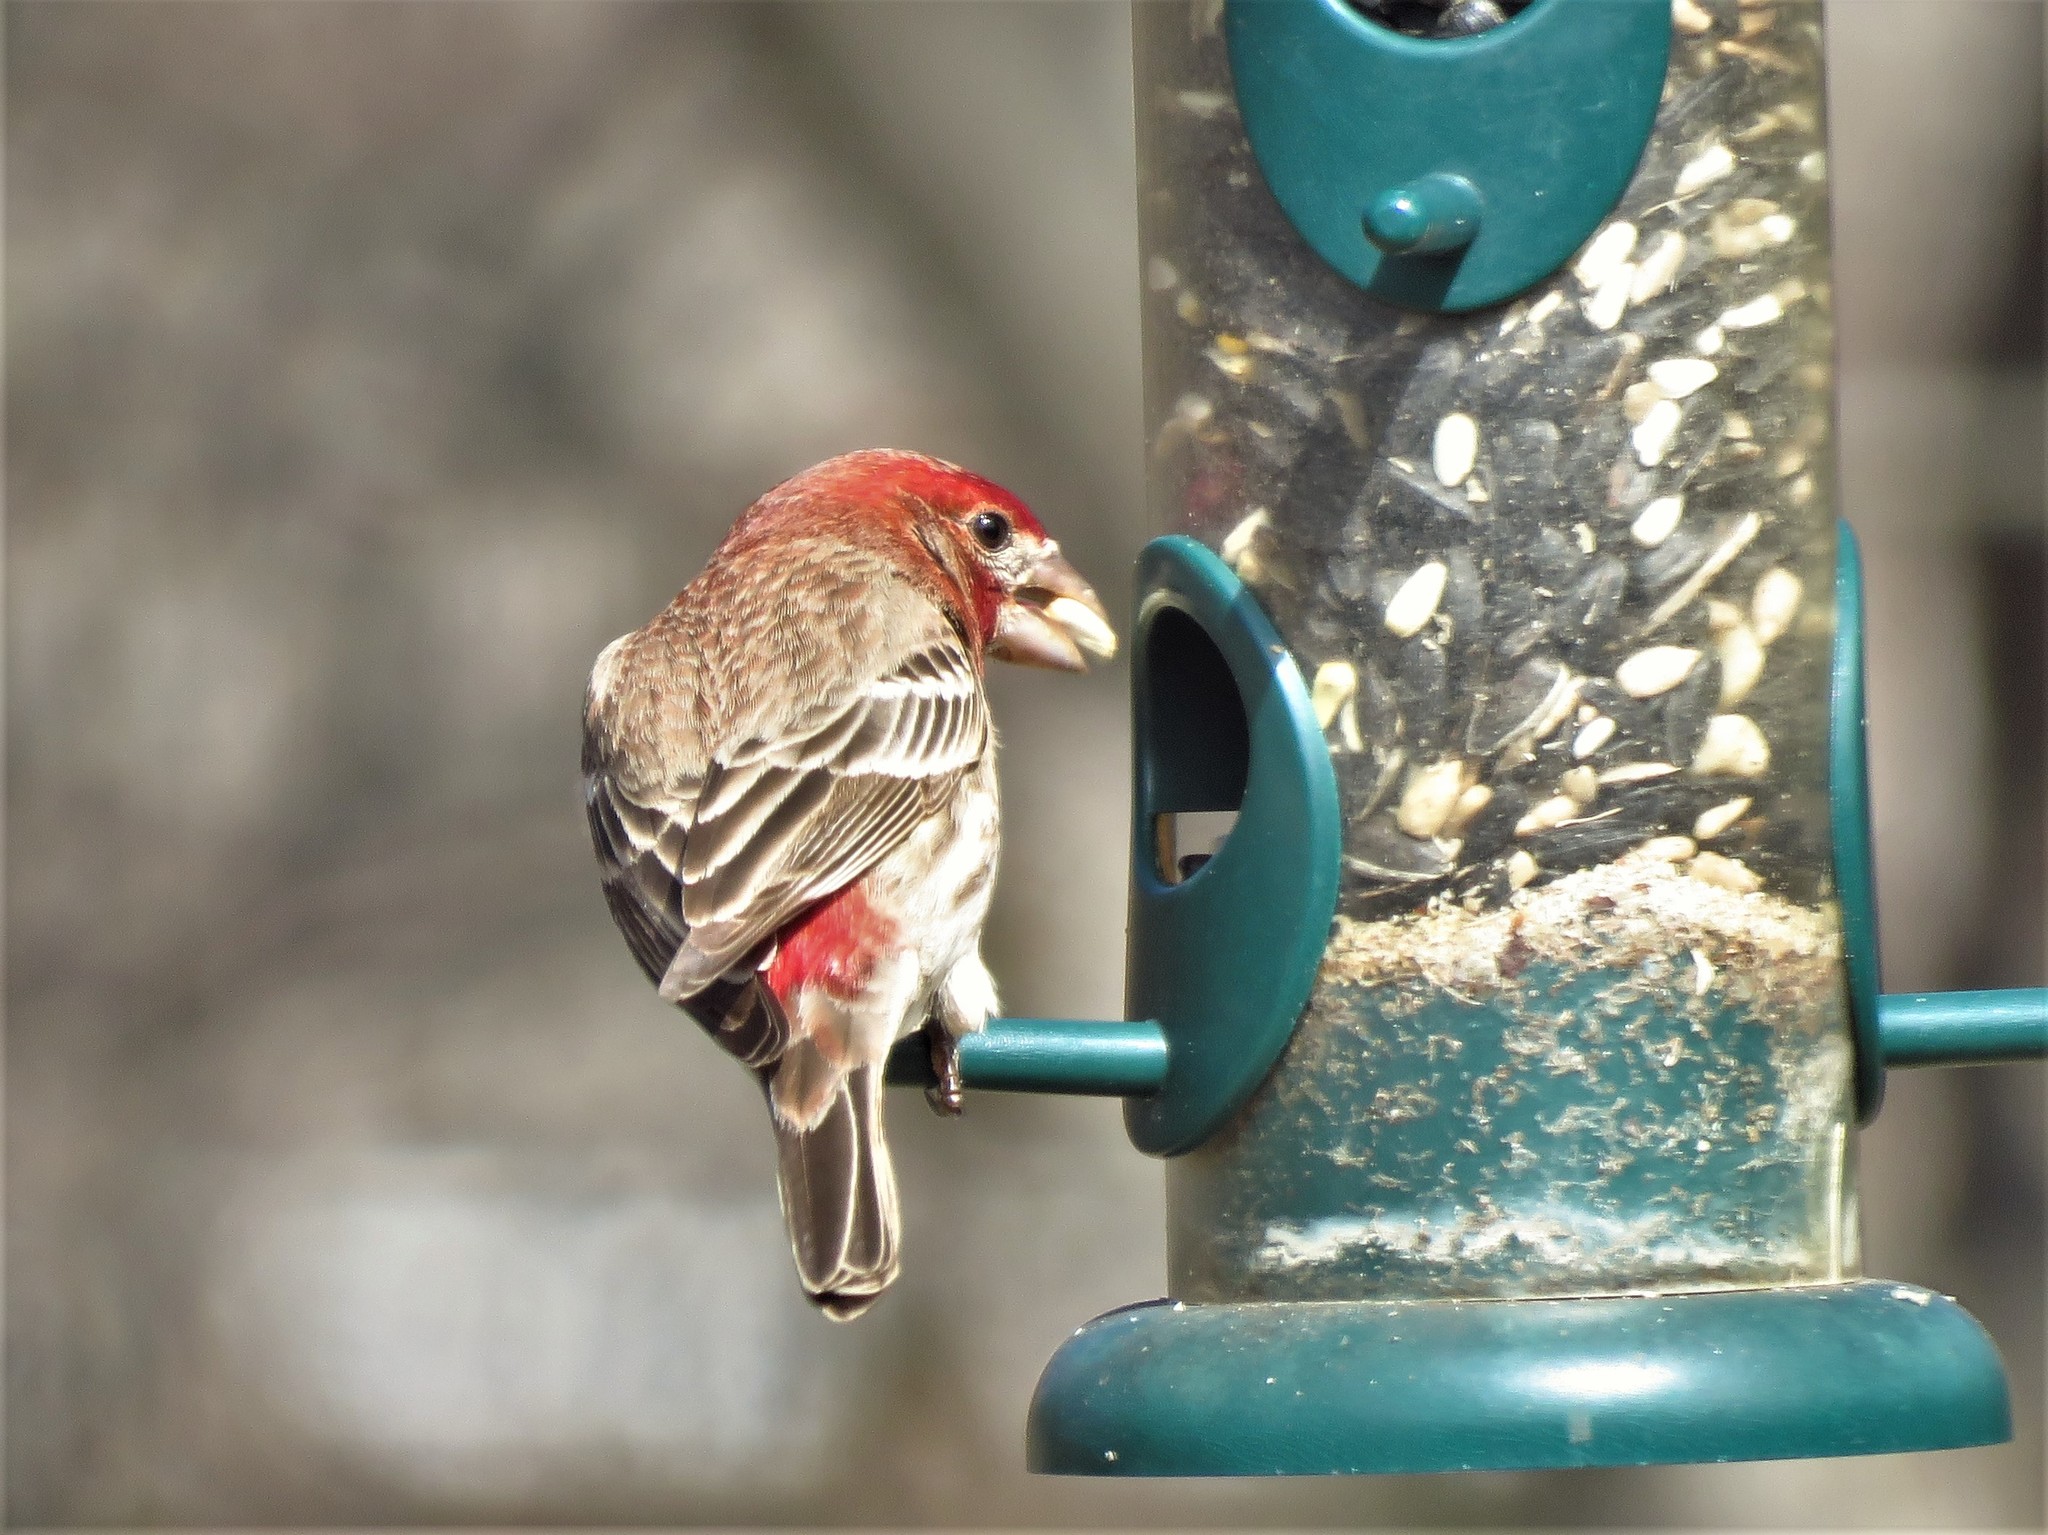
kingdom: Animalia
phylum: Chordata
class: Aves
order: Passeriformes
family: Fringillidae
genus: Haemorhous
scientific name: Haemorhous mexicanus
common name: House finch
